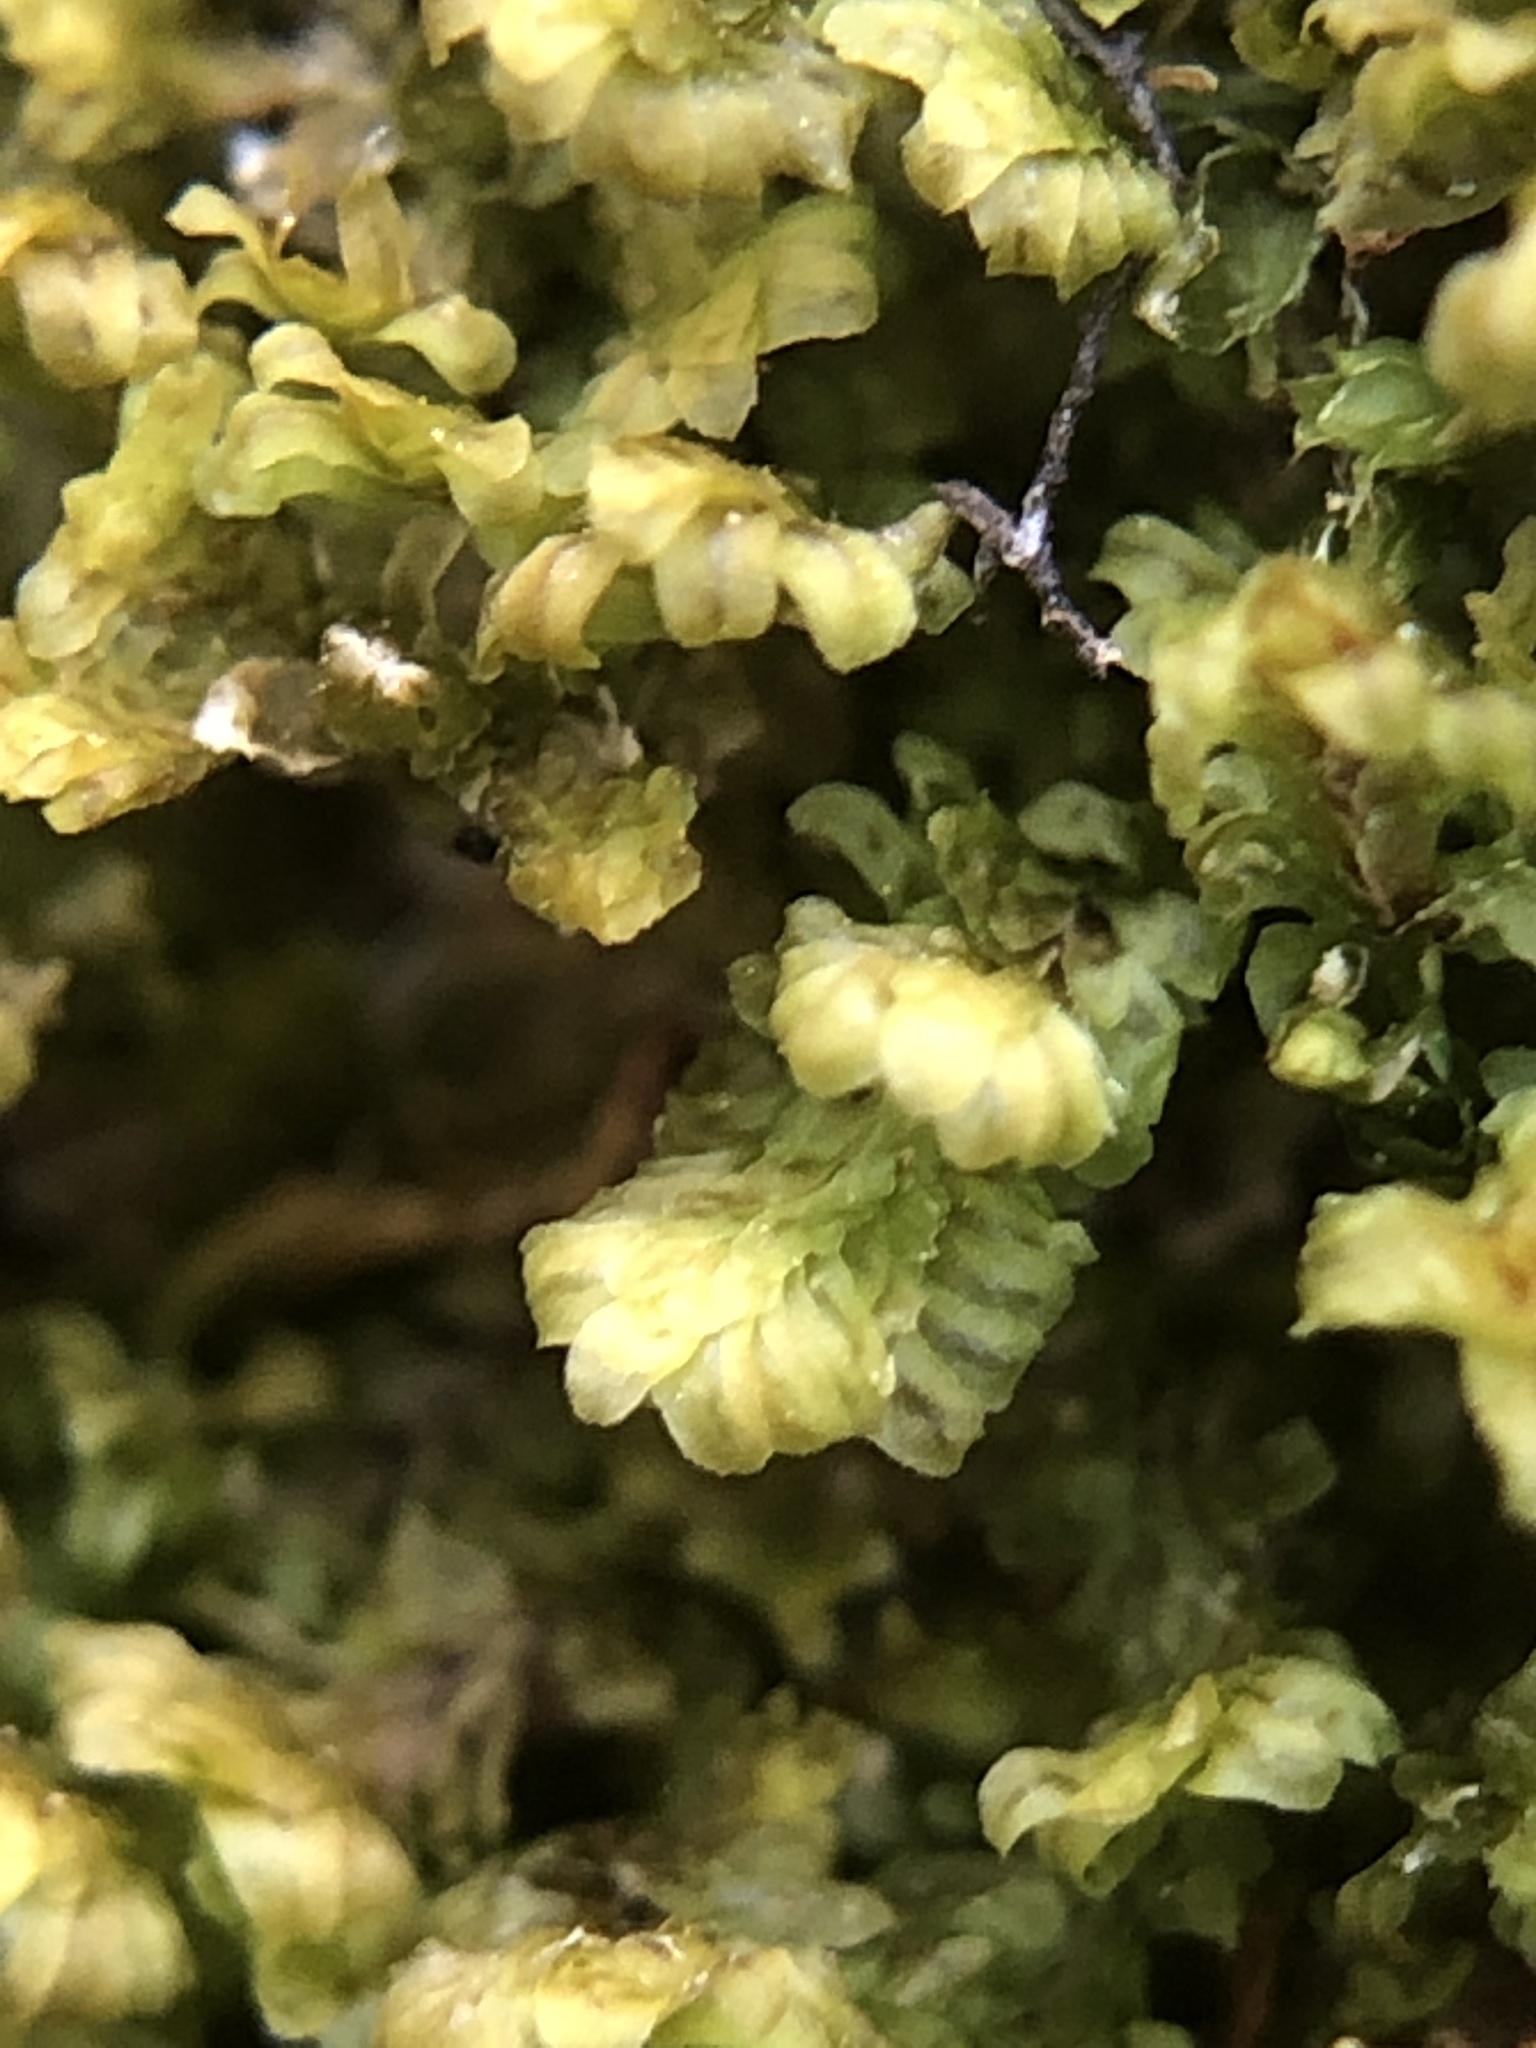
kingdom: Plantae
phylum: Marchantiophyta
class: Jungermanniopsida
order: Jungermanniales
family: Scapaniaceae
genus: Diplophyllum
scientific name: Diplophyllum albicans
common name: White earwort
